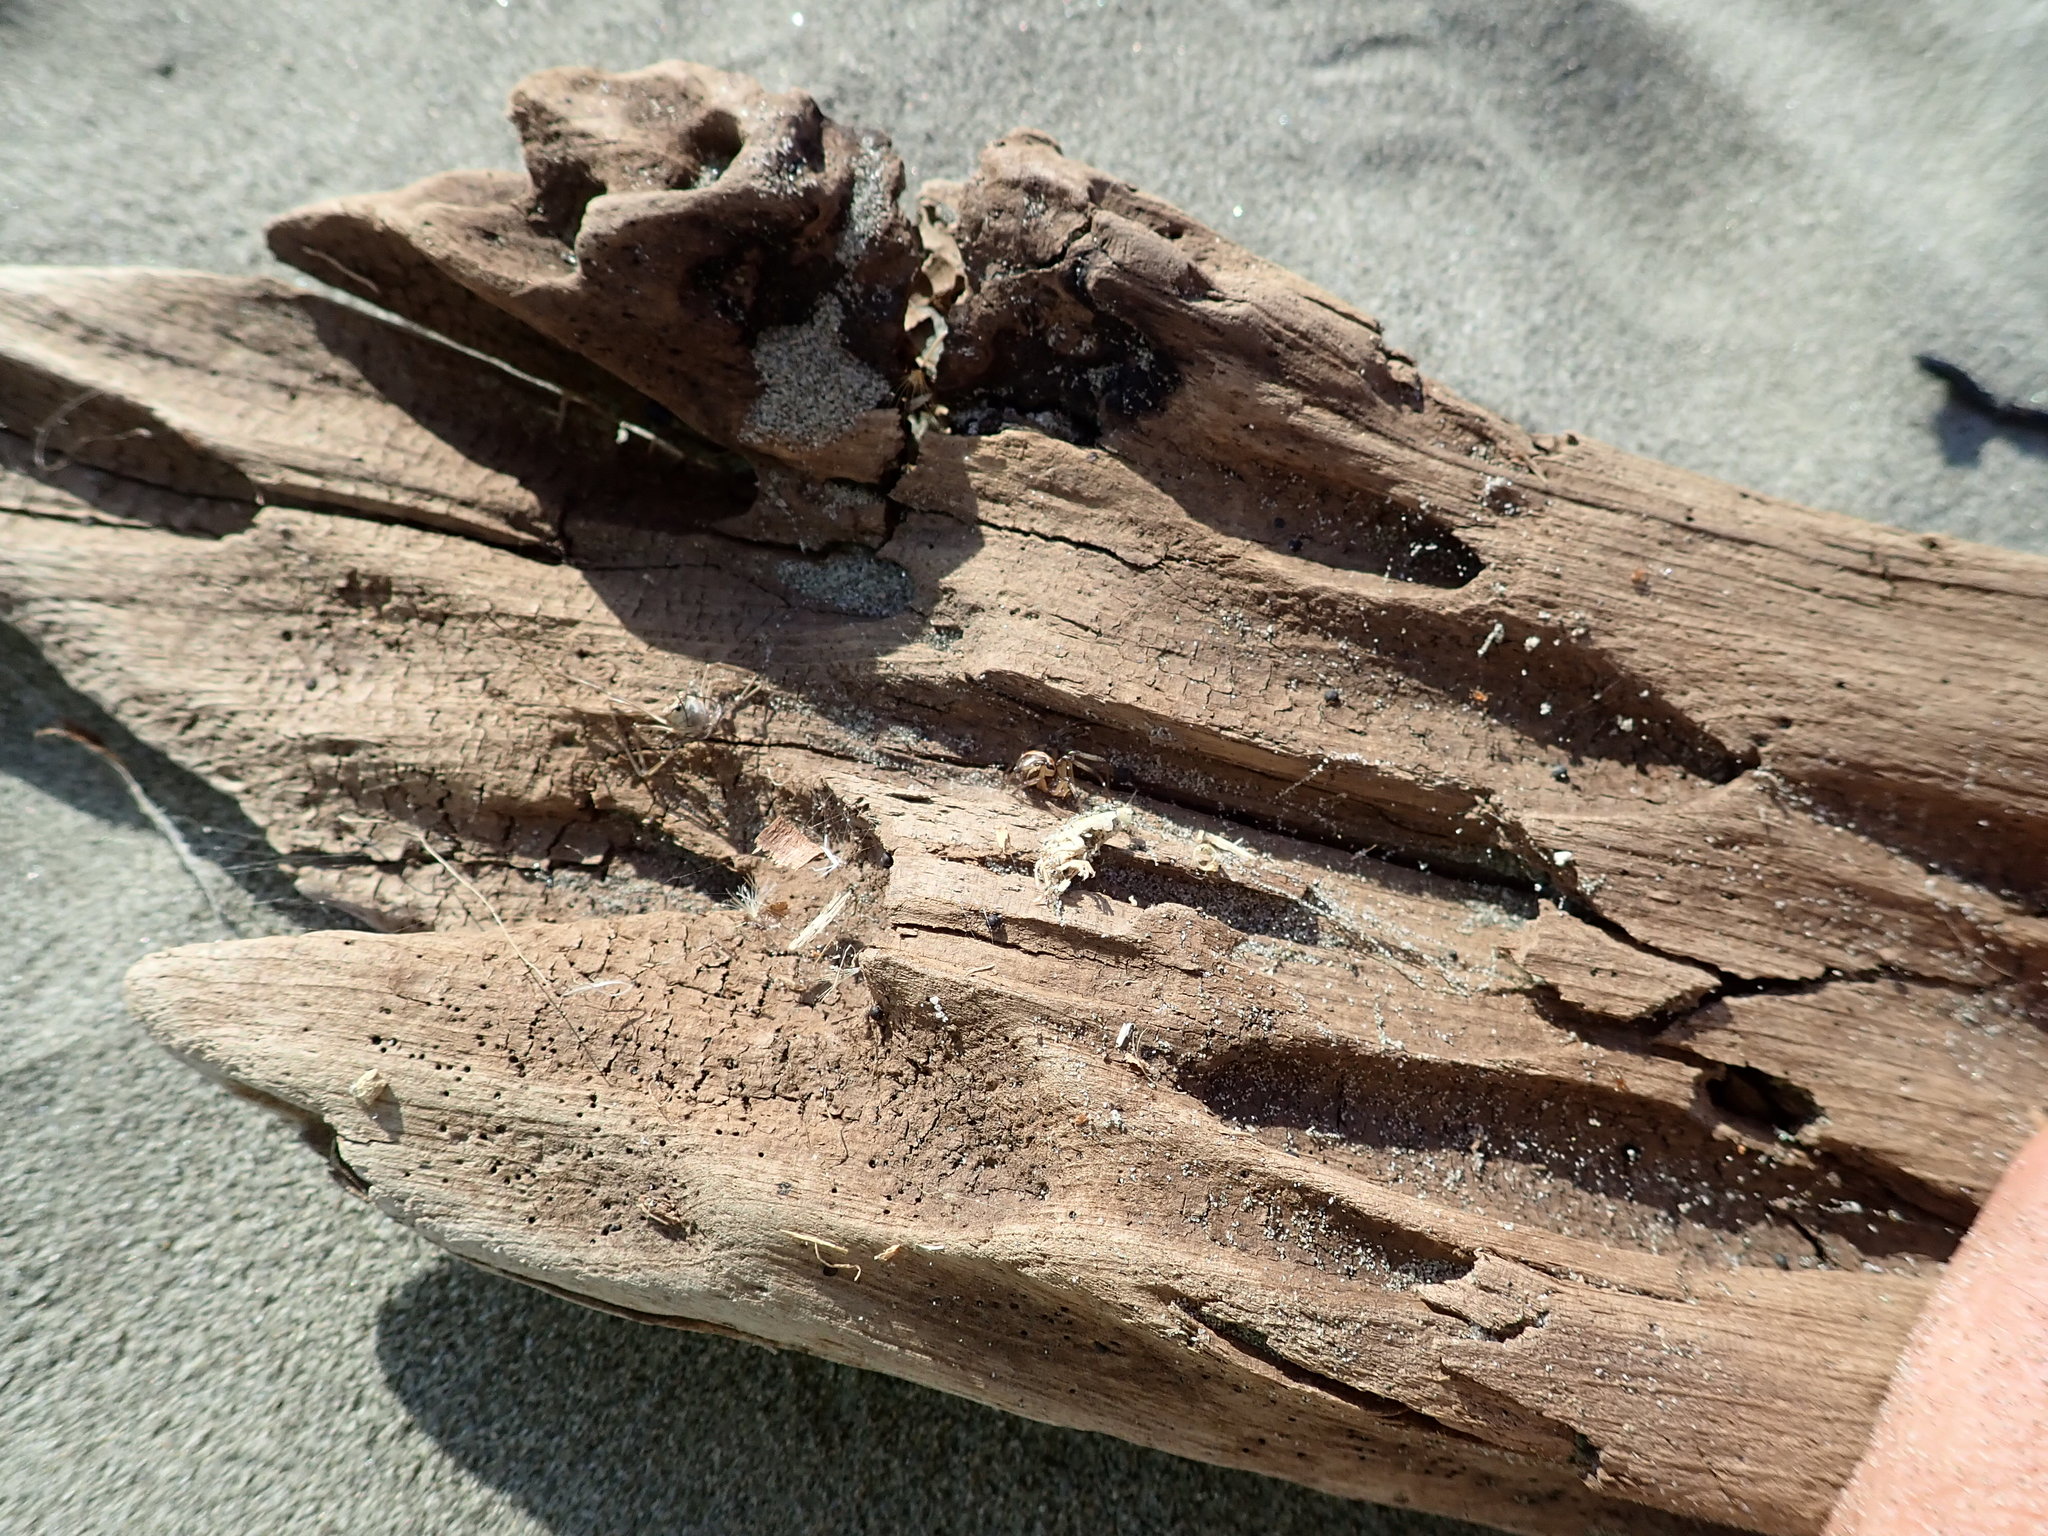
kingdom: Animalia
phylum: Arthropoda
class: Arachnida
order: Araneae
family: Theridiidae
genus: Latrodectus
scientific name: Latrodectus katipo
